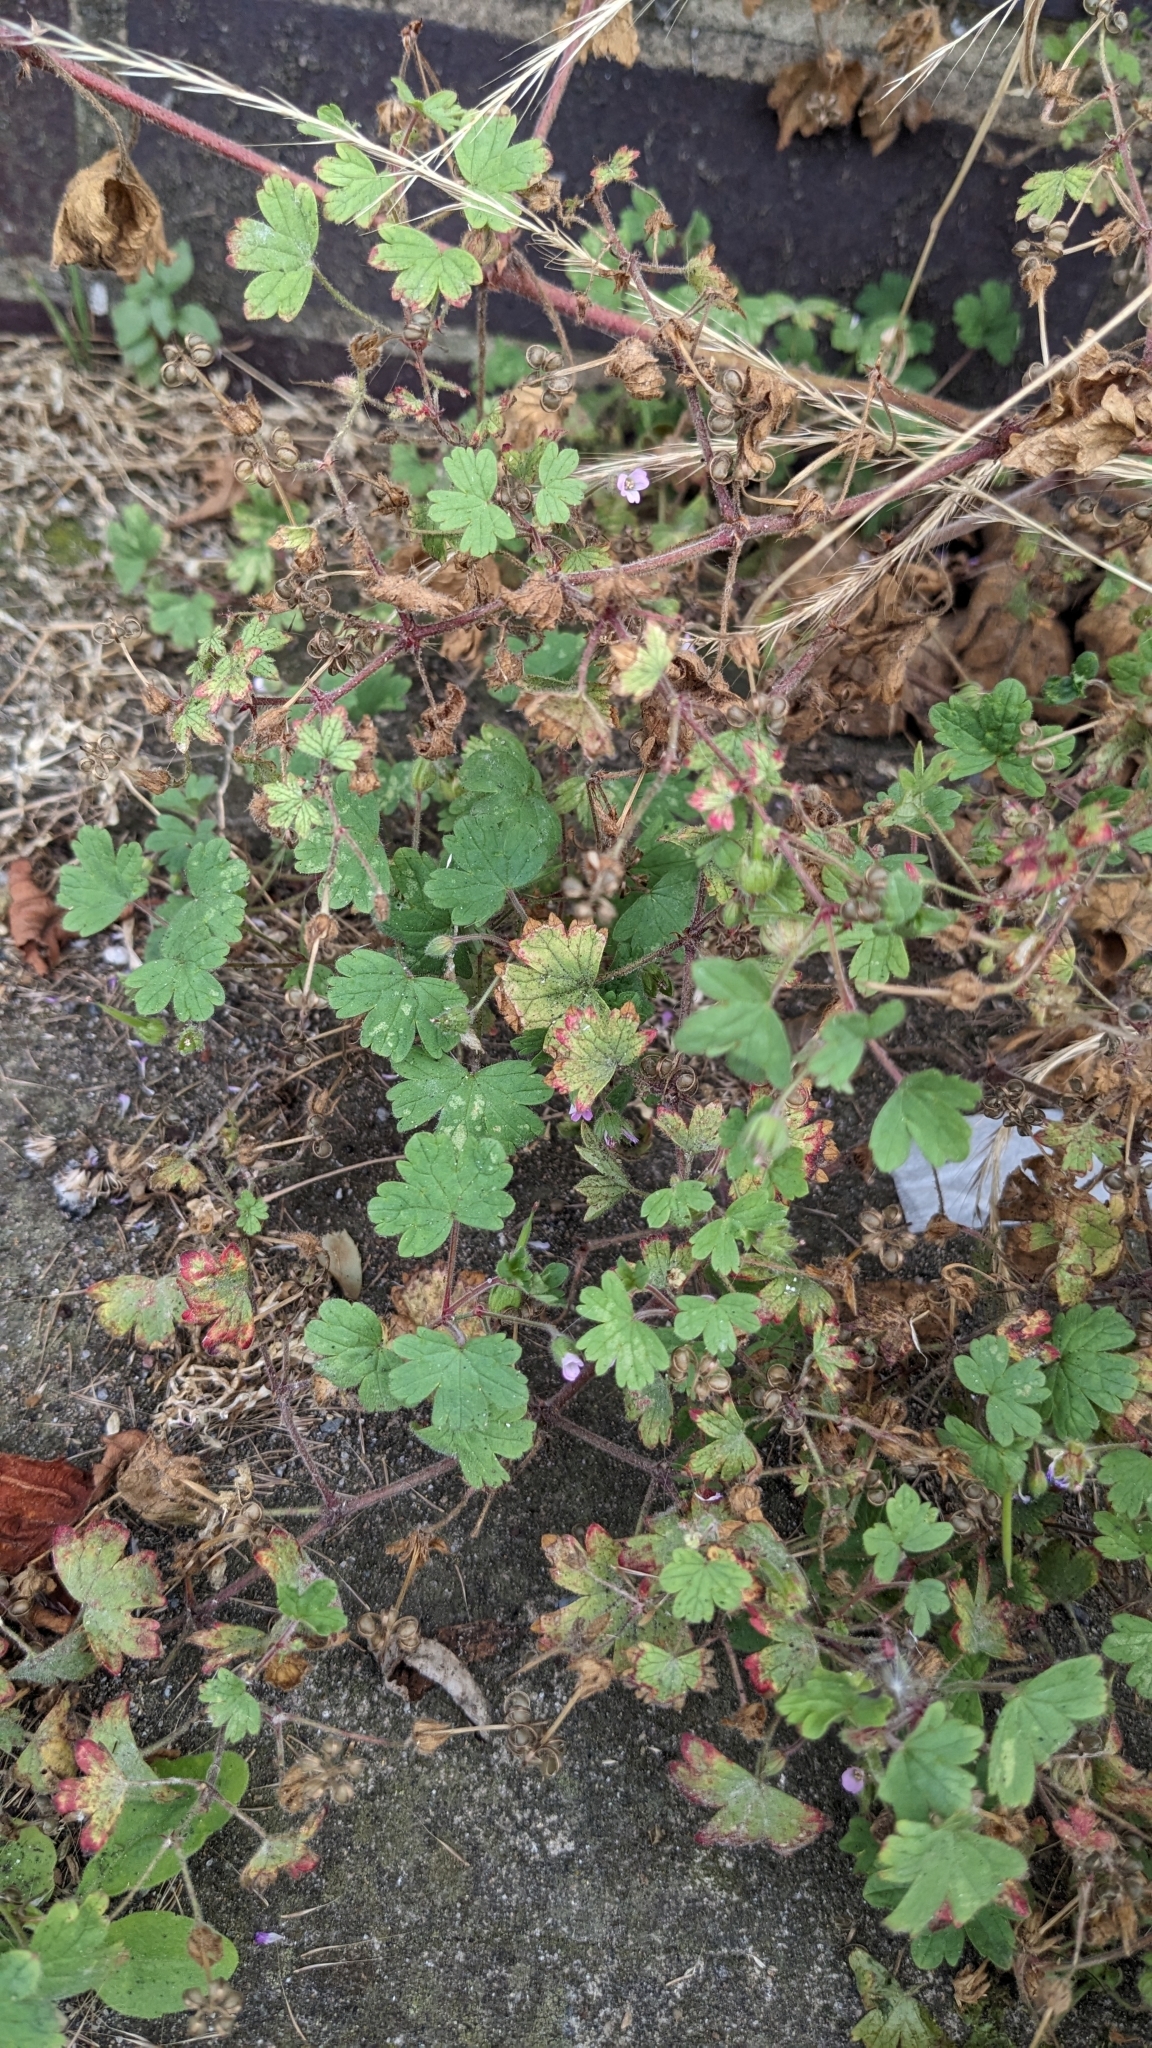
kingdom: Plantae
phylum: Tracheophyta
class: Magnoliopsida
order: Geraniales
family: Geraniaceae
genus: Geranium
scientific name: Geranium rotundifolium
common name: Round-leaved crane's-bill
